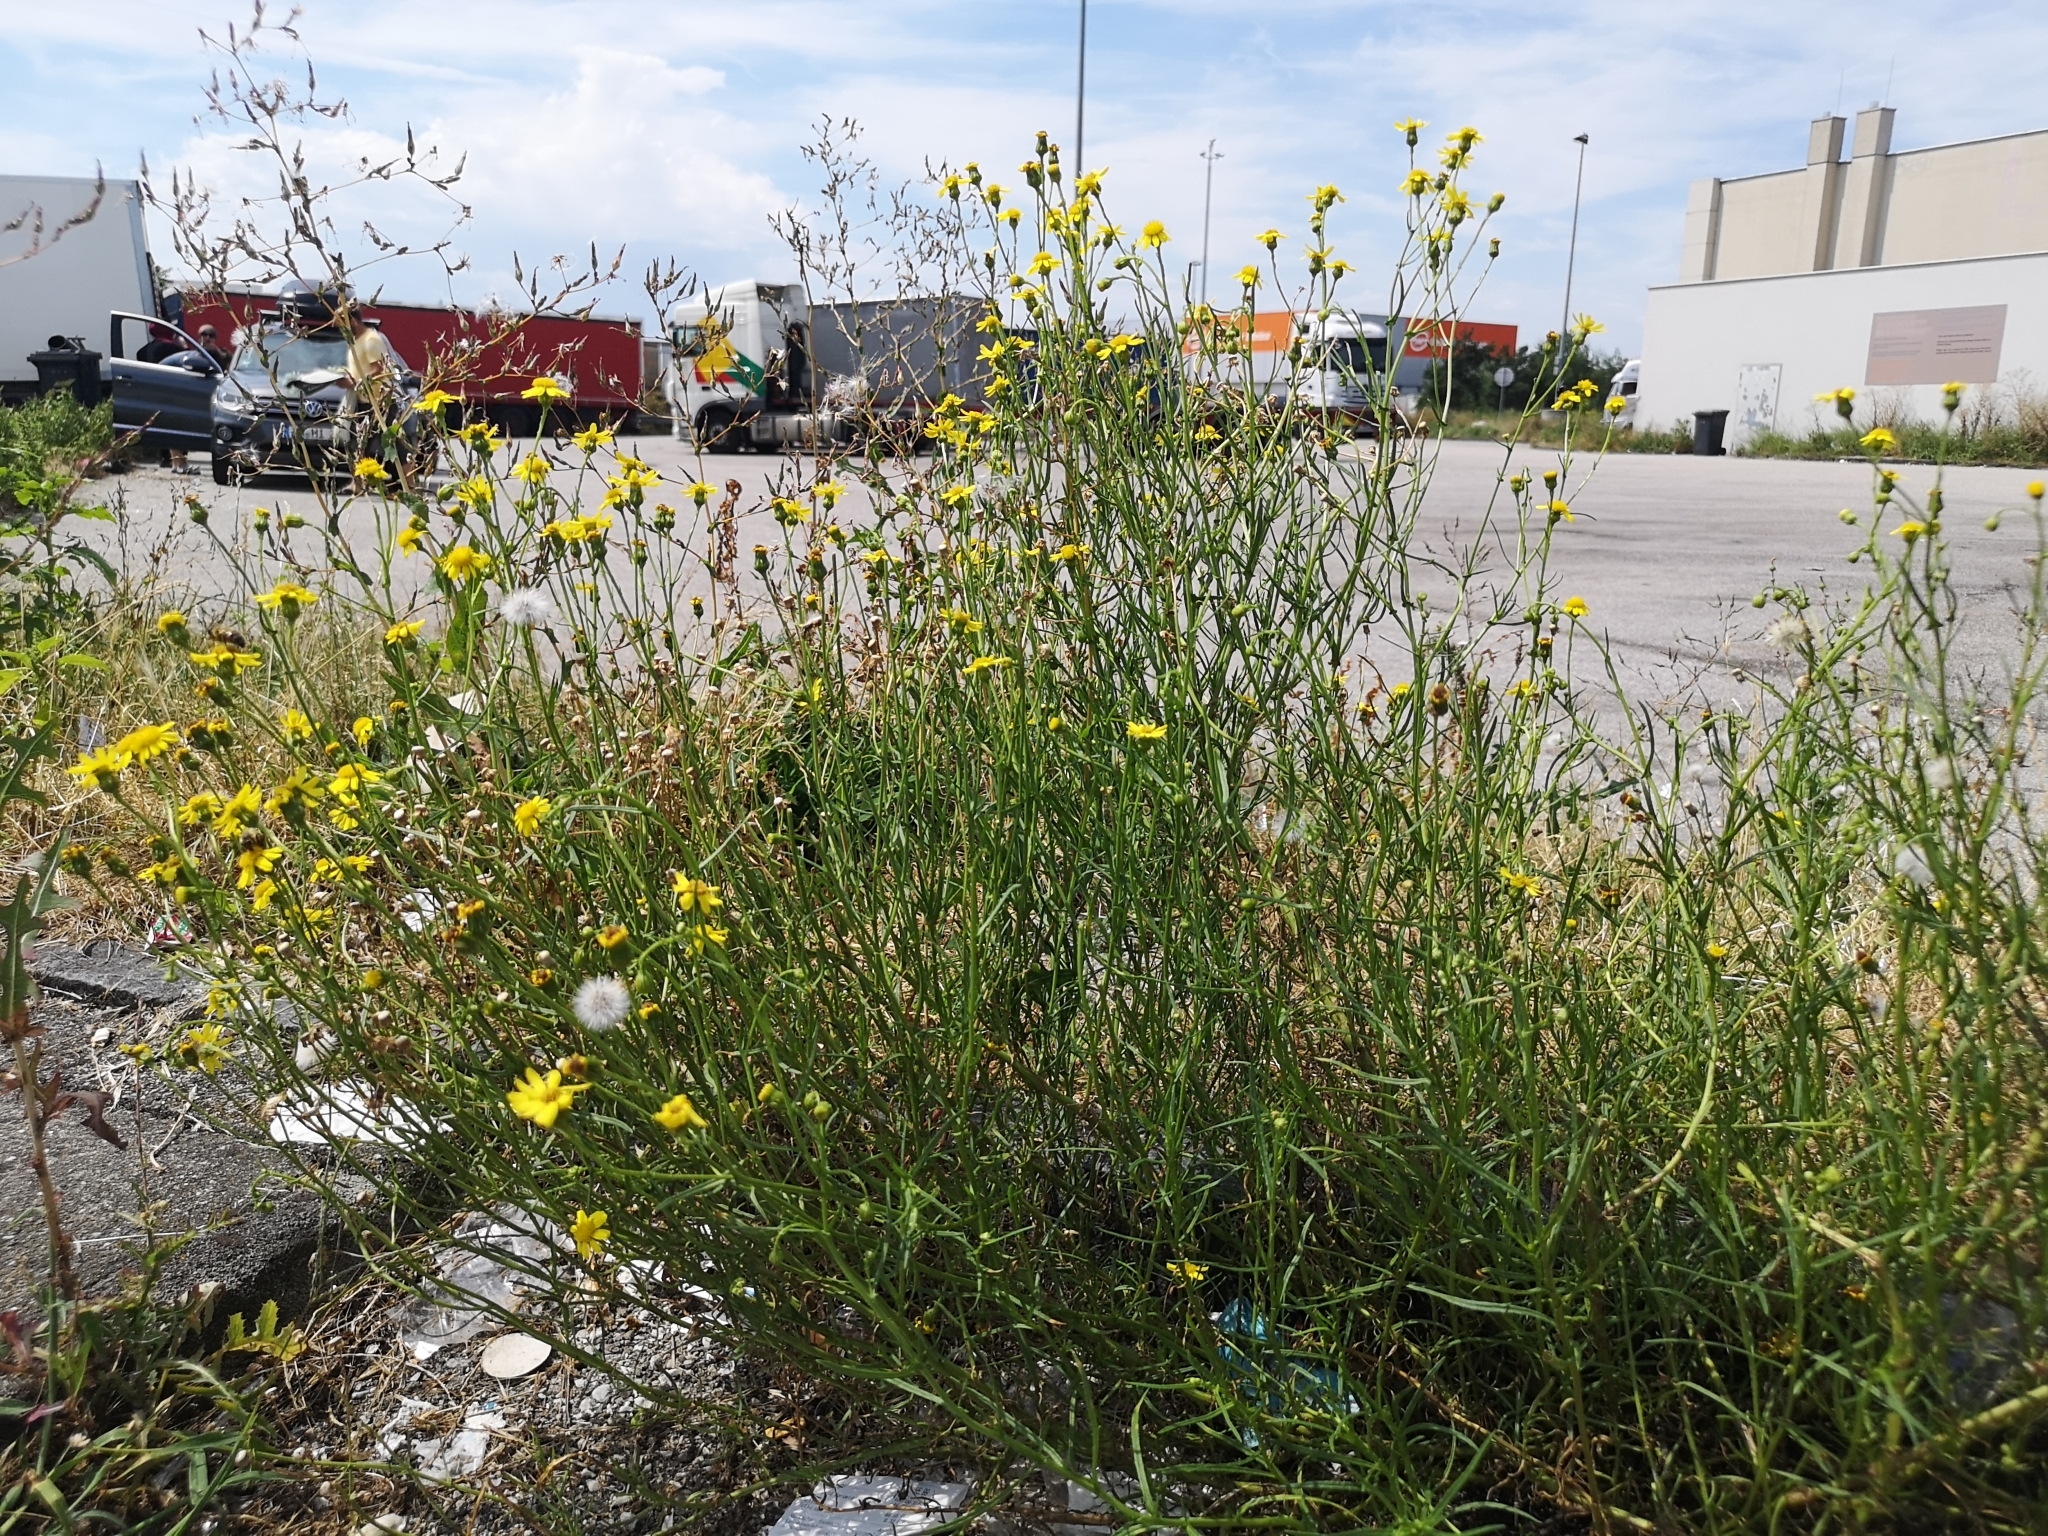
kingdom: Plantae
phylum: Tracheophyta
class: Magnoliopsida
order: Asterales
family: Asteraceae
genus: Senecio
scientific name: Senecio inaequidens
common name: Narrow-leaved ragwort
